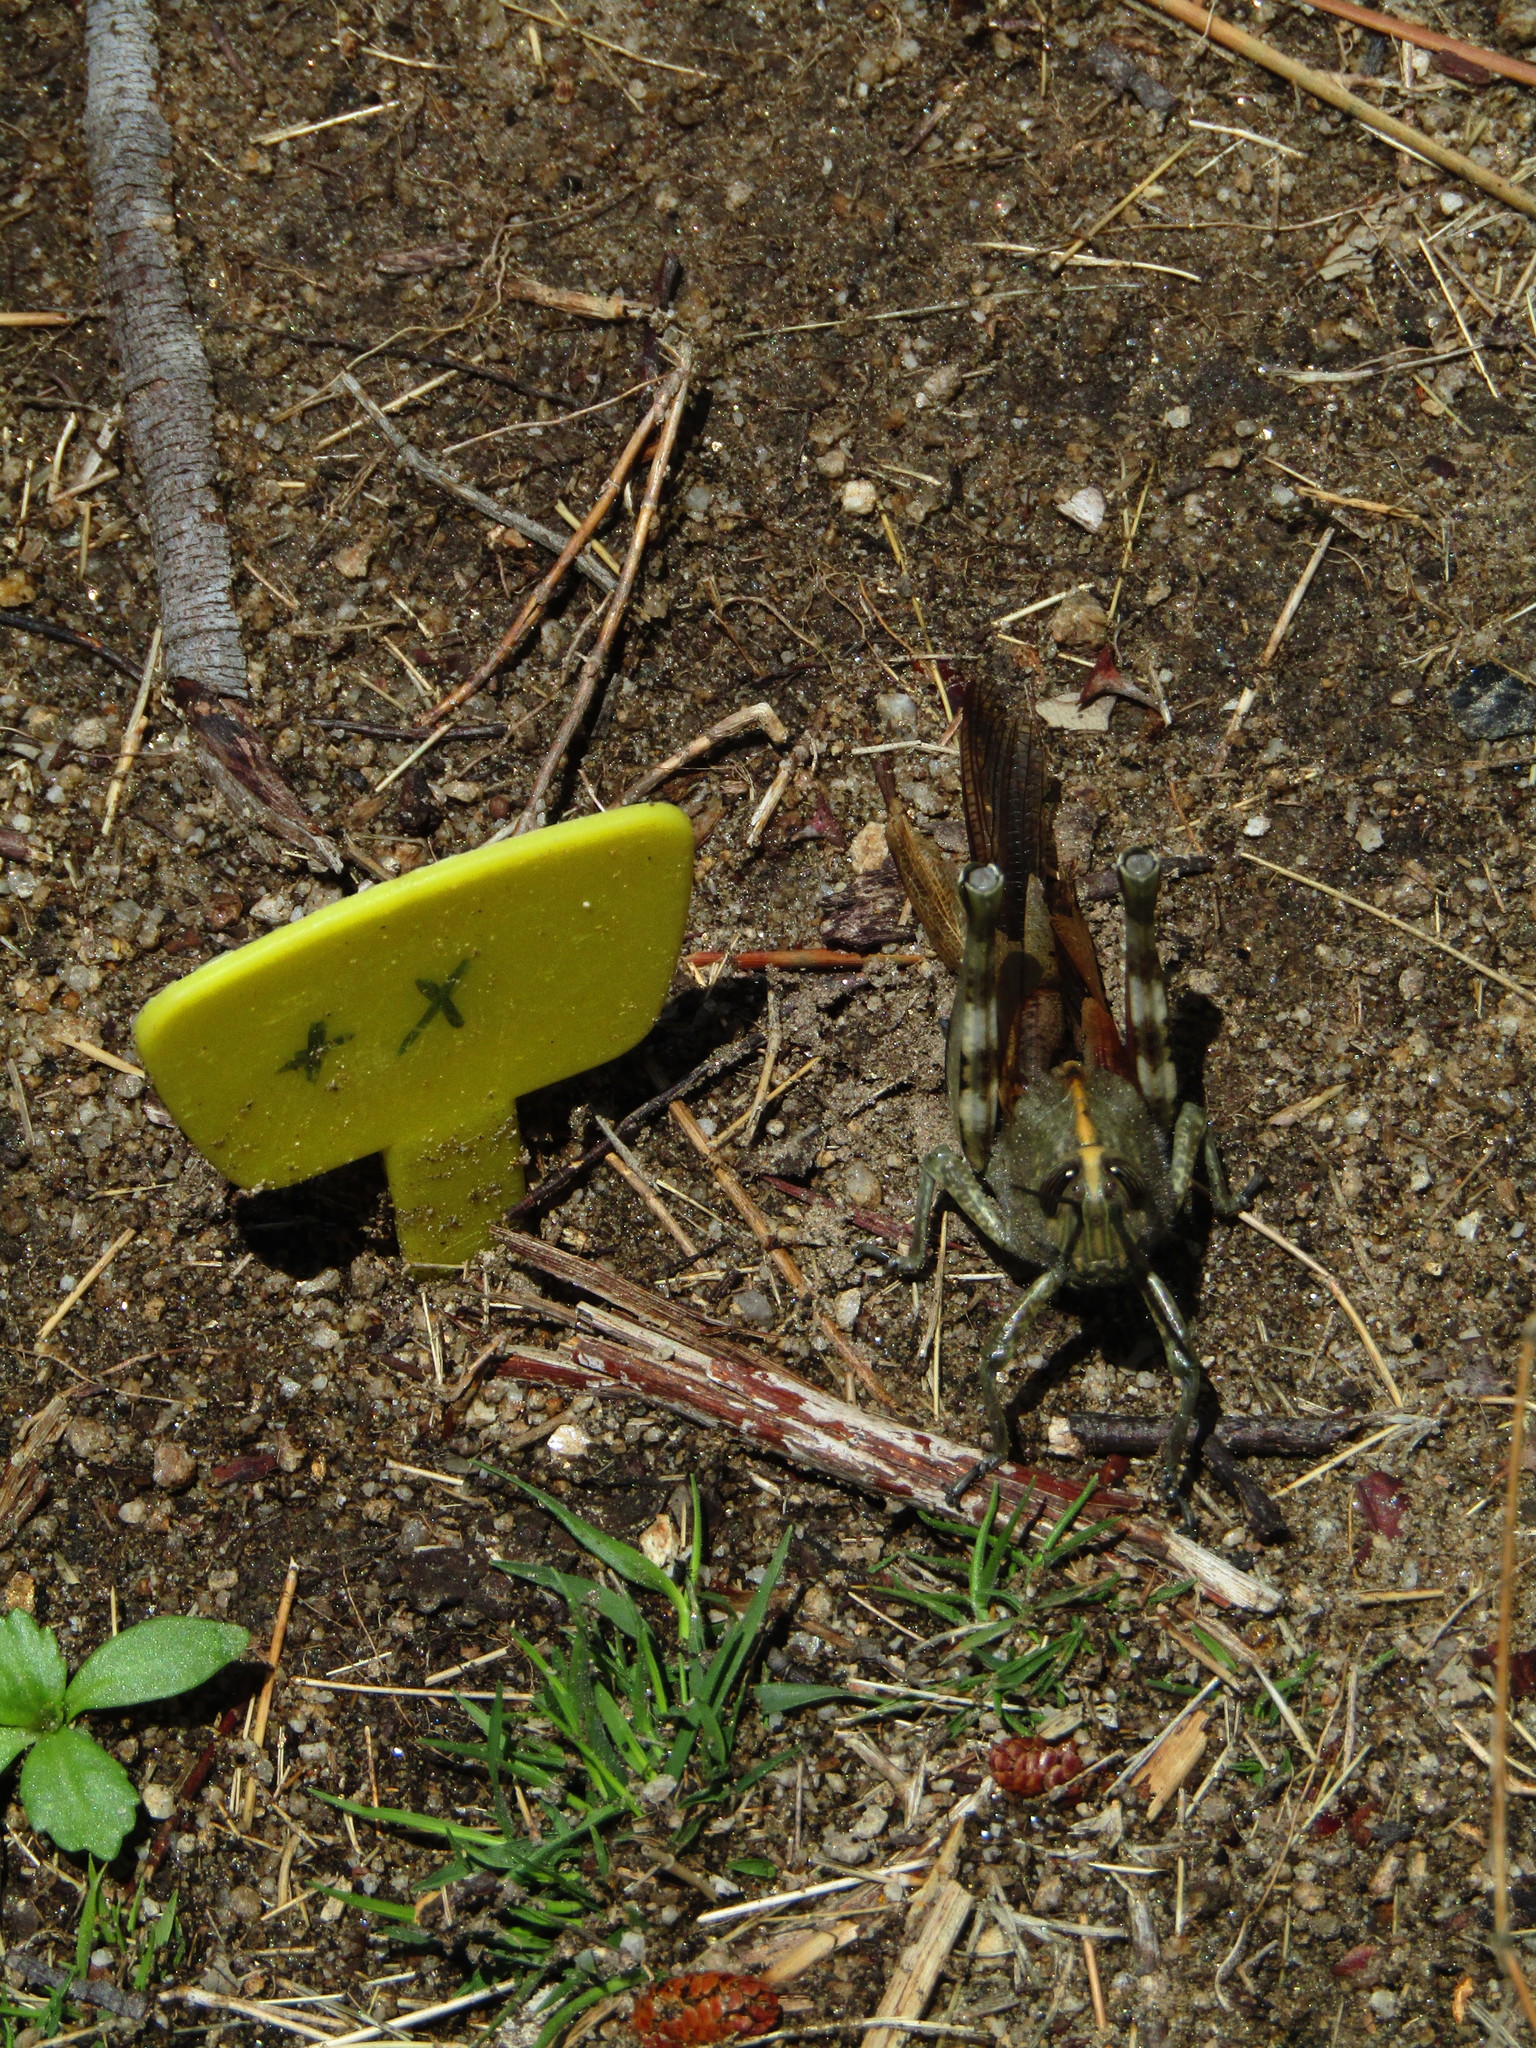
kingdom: Animalia
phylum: Arthropoda
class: Insecta
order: Orthoptera
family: Acrididae
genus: Anacridium
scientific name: Anacridium aegyptium
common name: Egyptian grasshopper
